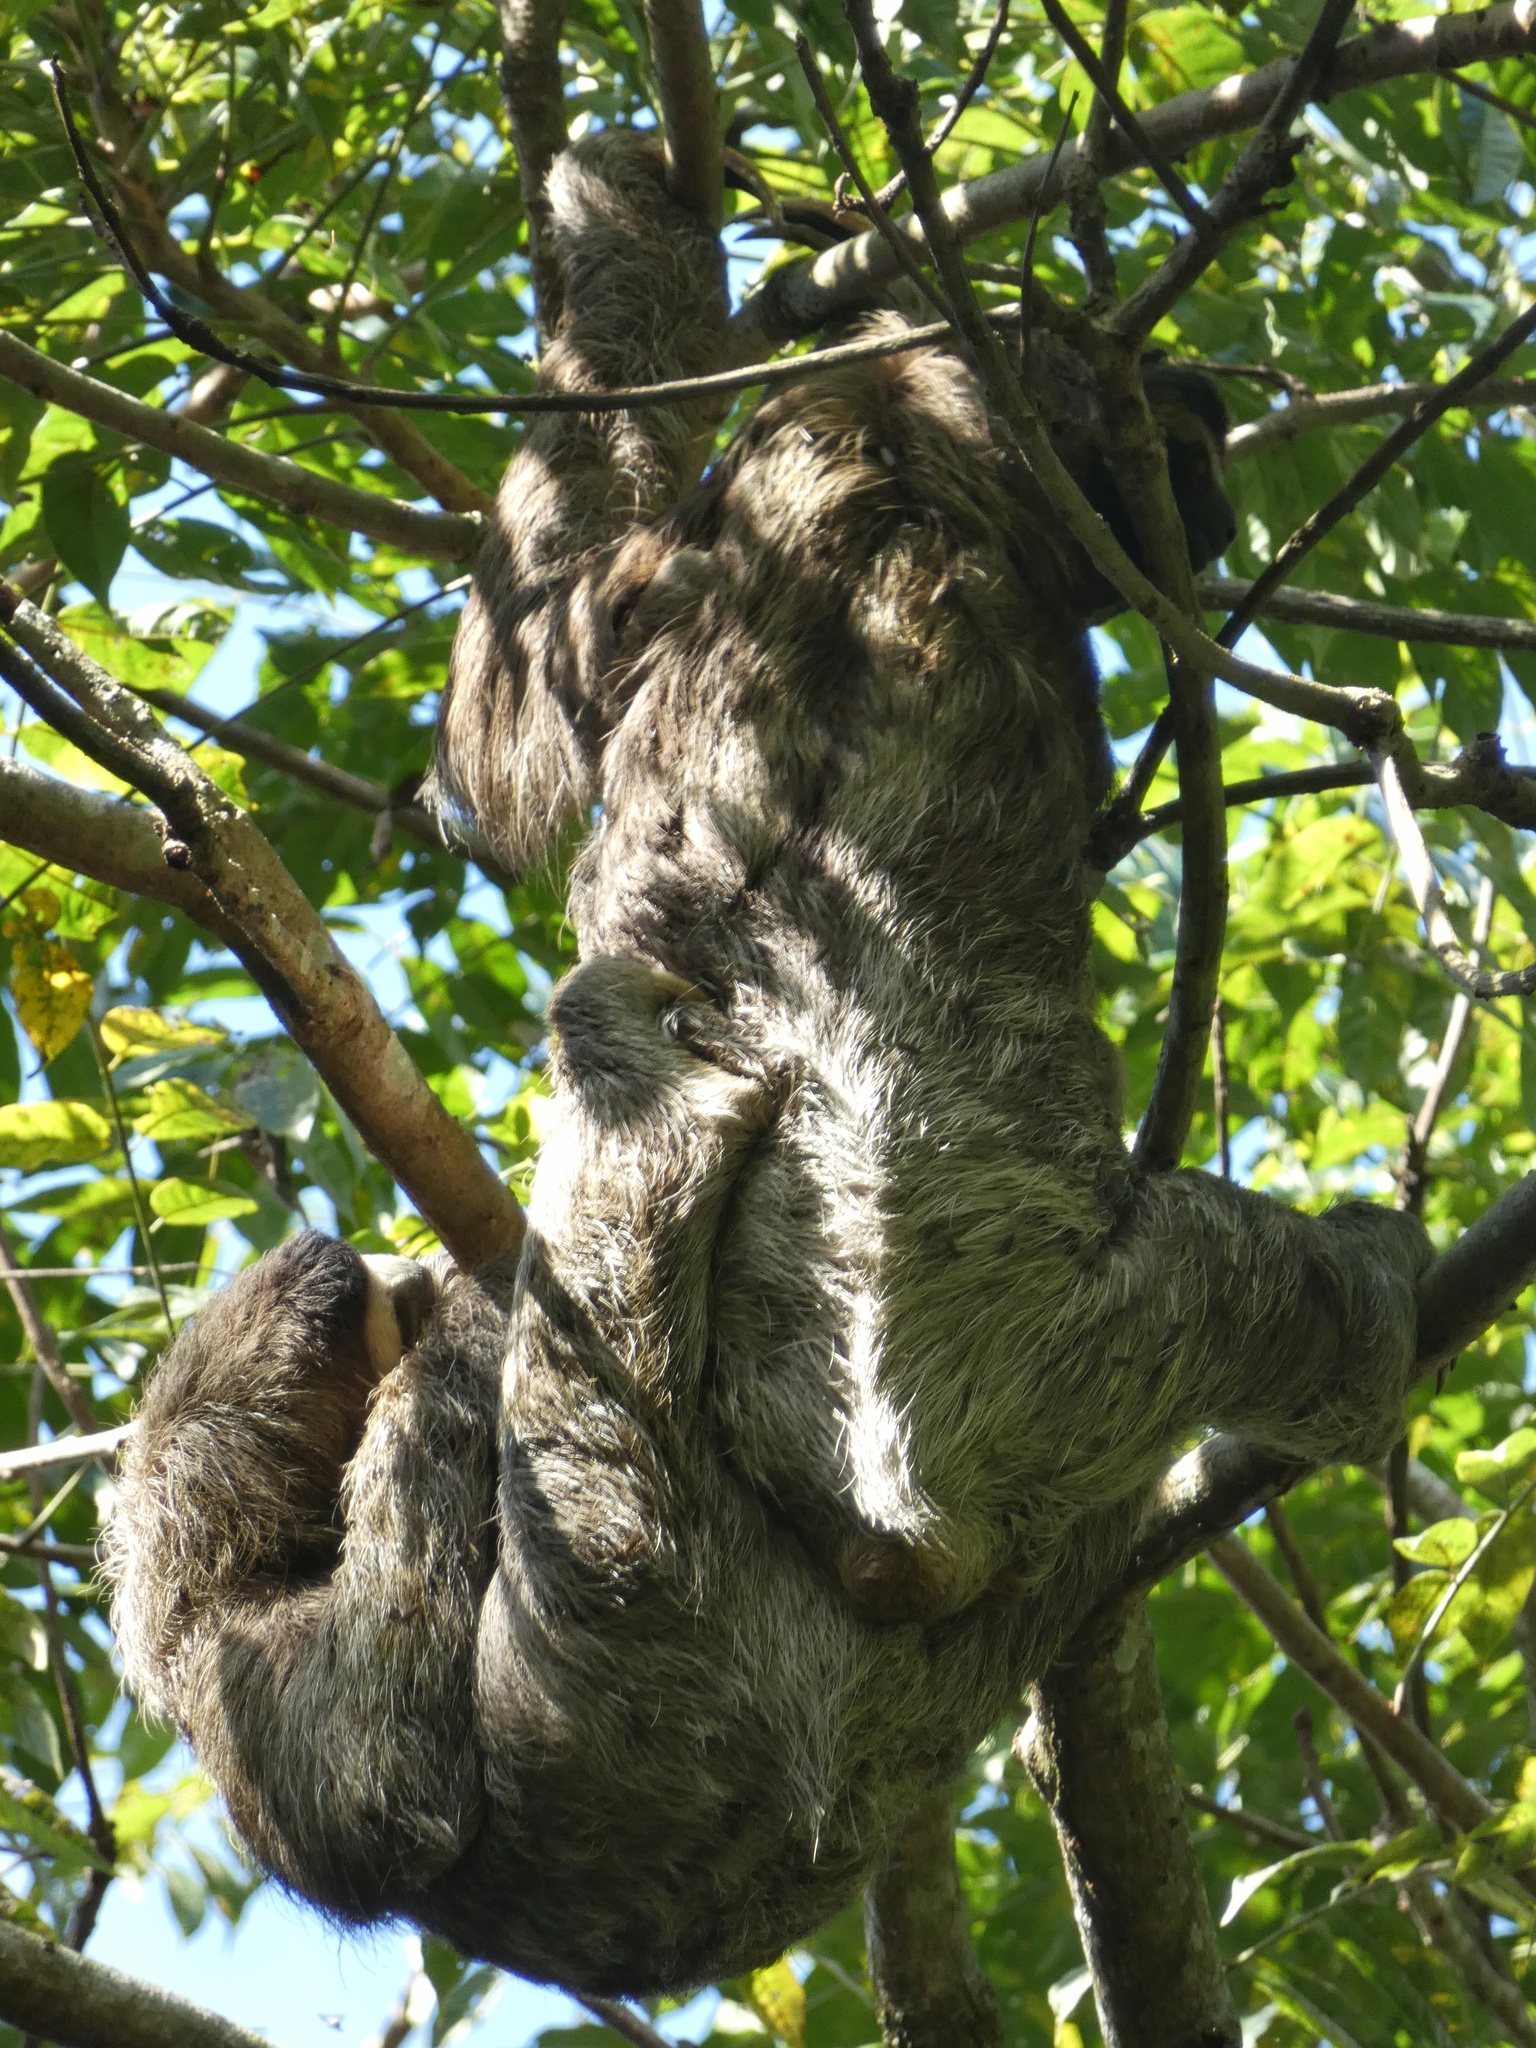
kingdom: Animalia
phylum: Chordata
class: Mammalia
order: Pilosa
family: Bradypodidae
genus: Bradypus
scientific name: Bradypus variegatus
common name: Brown-throated three-toed sloth
